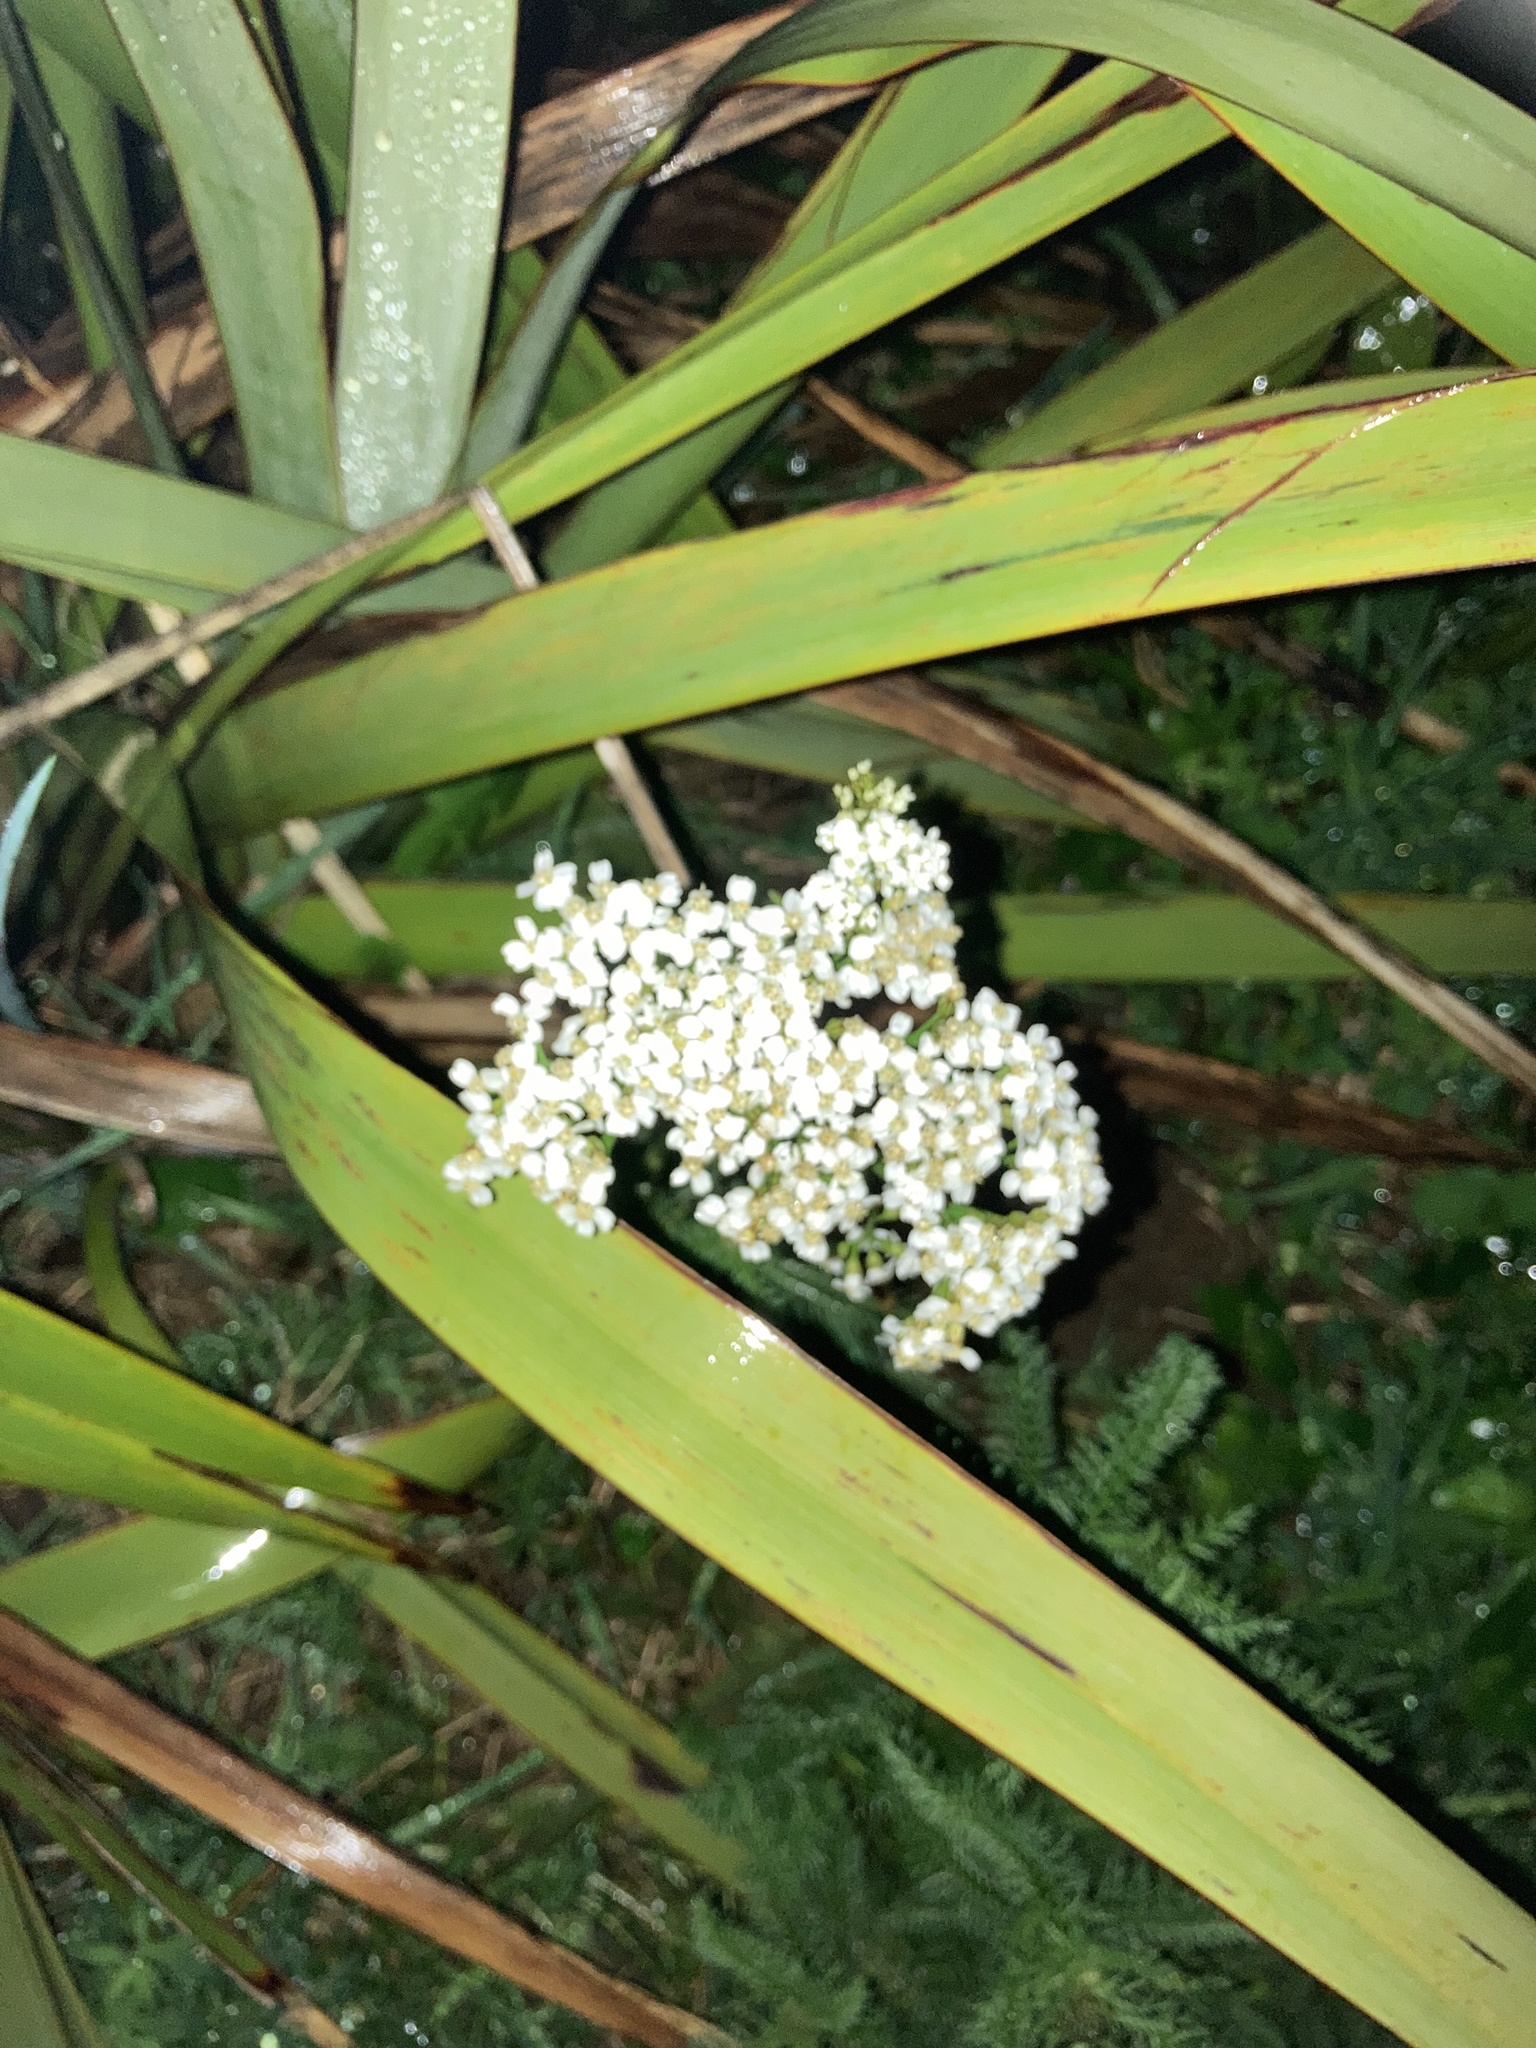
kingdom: Plantae
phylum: Tracheophyta
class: Magnoliopsida
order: Asterales
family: Asteraceae
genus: Achillea
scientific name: Achillea millefolium
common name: Yarrow
